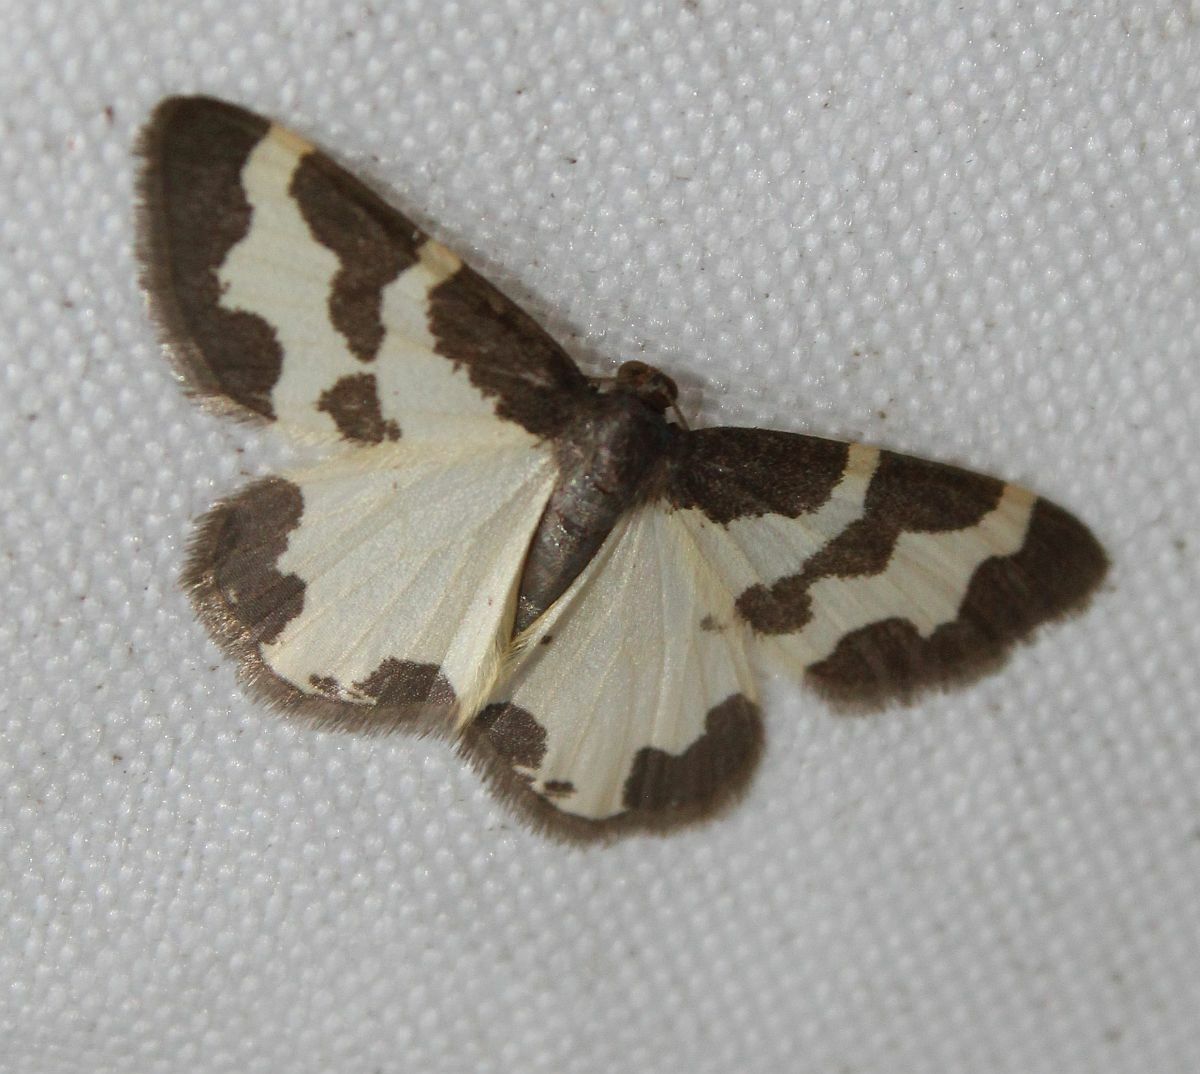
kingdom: Animalia
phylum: Arthropoda
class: Insecta
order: Lepidoptera
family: Geometridae
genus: Lomaspilis
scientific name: Lomaspilis marginata
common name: Clouded border
